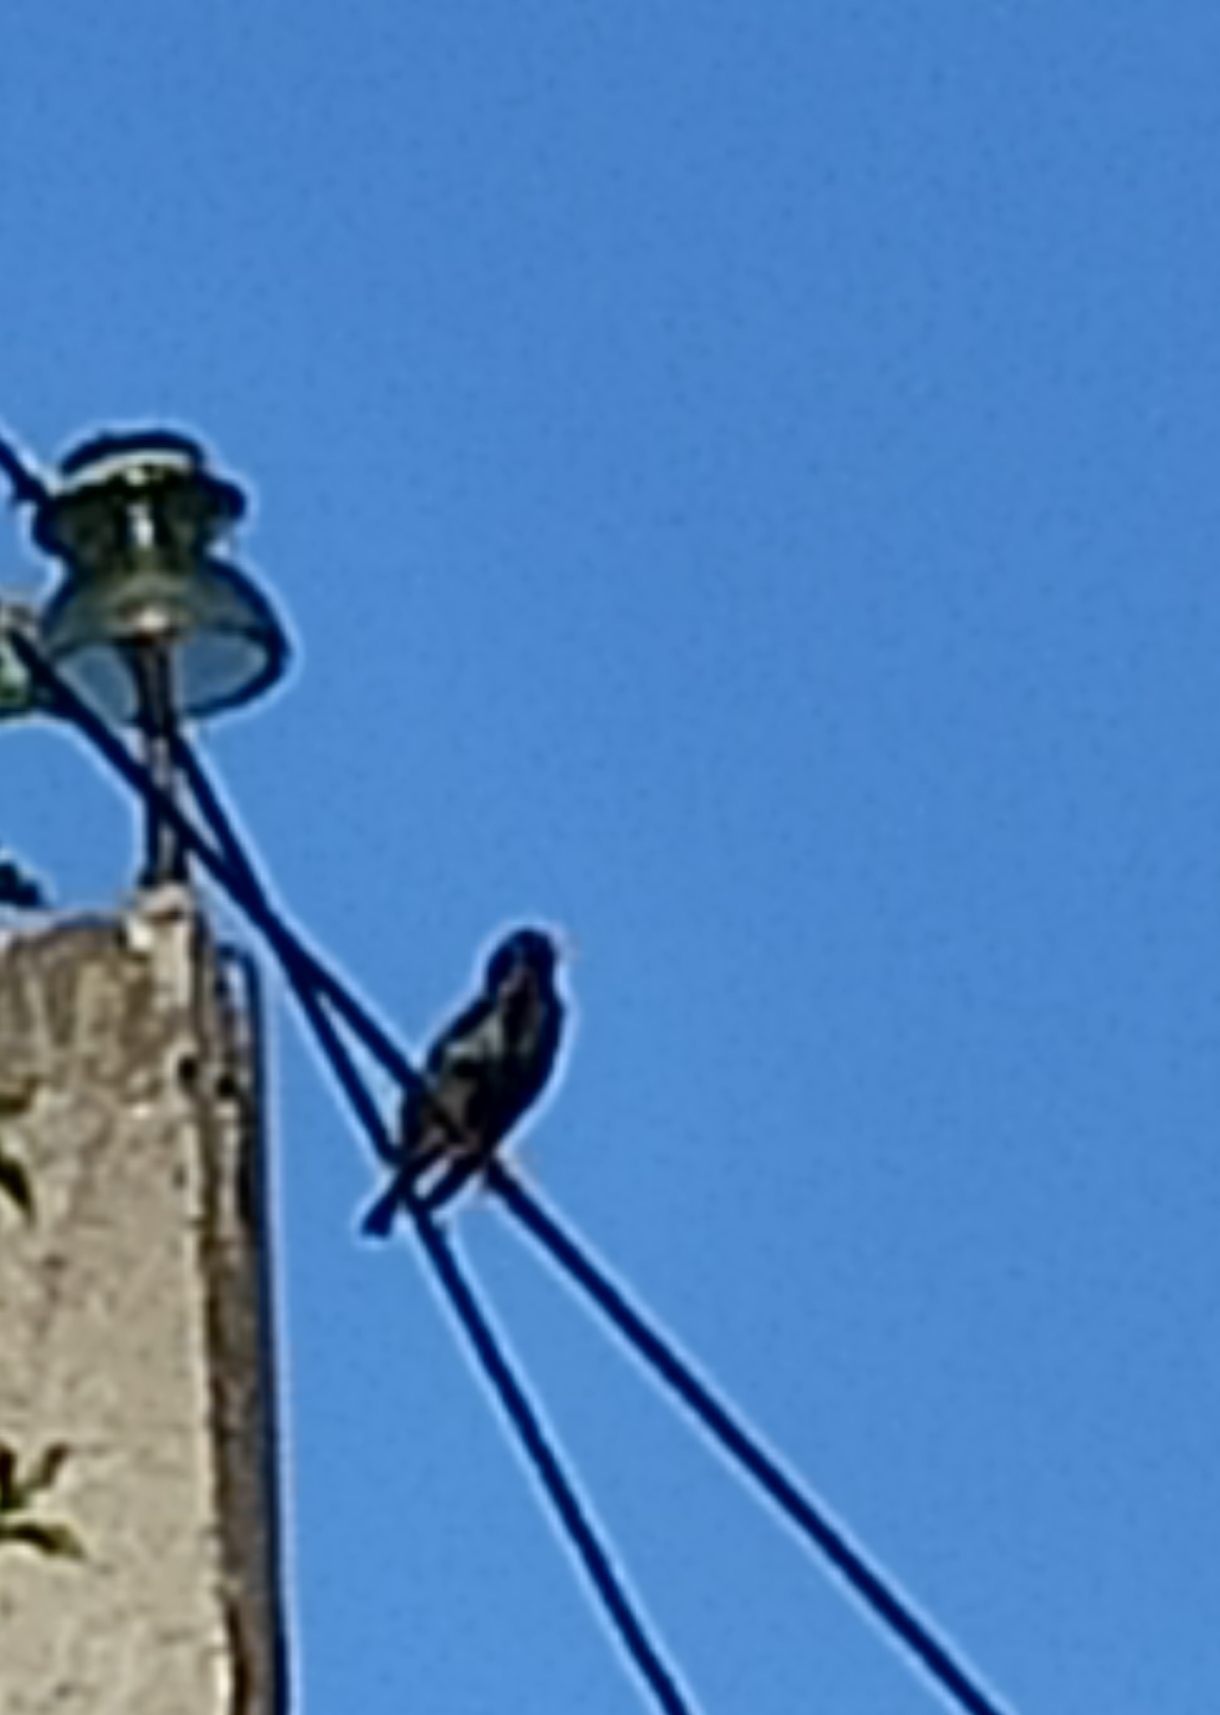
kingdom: Animalia
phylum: Chordata
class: Aves
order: Passeriformes
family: Sturnidae
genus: Sturnus
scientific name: Sturnus vulgaris
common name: Common starling
